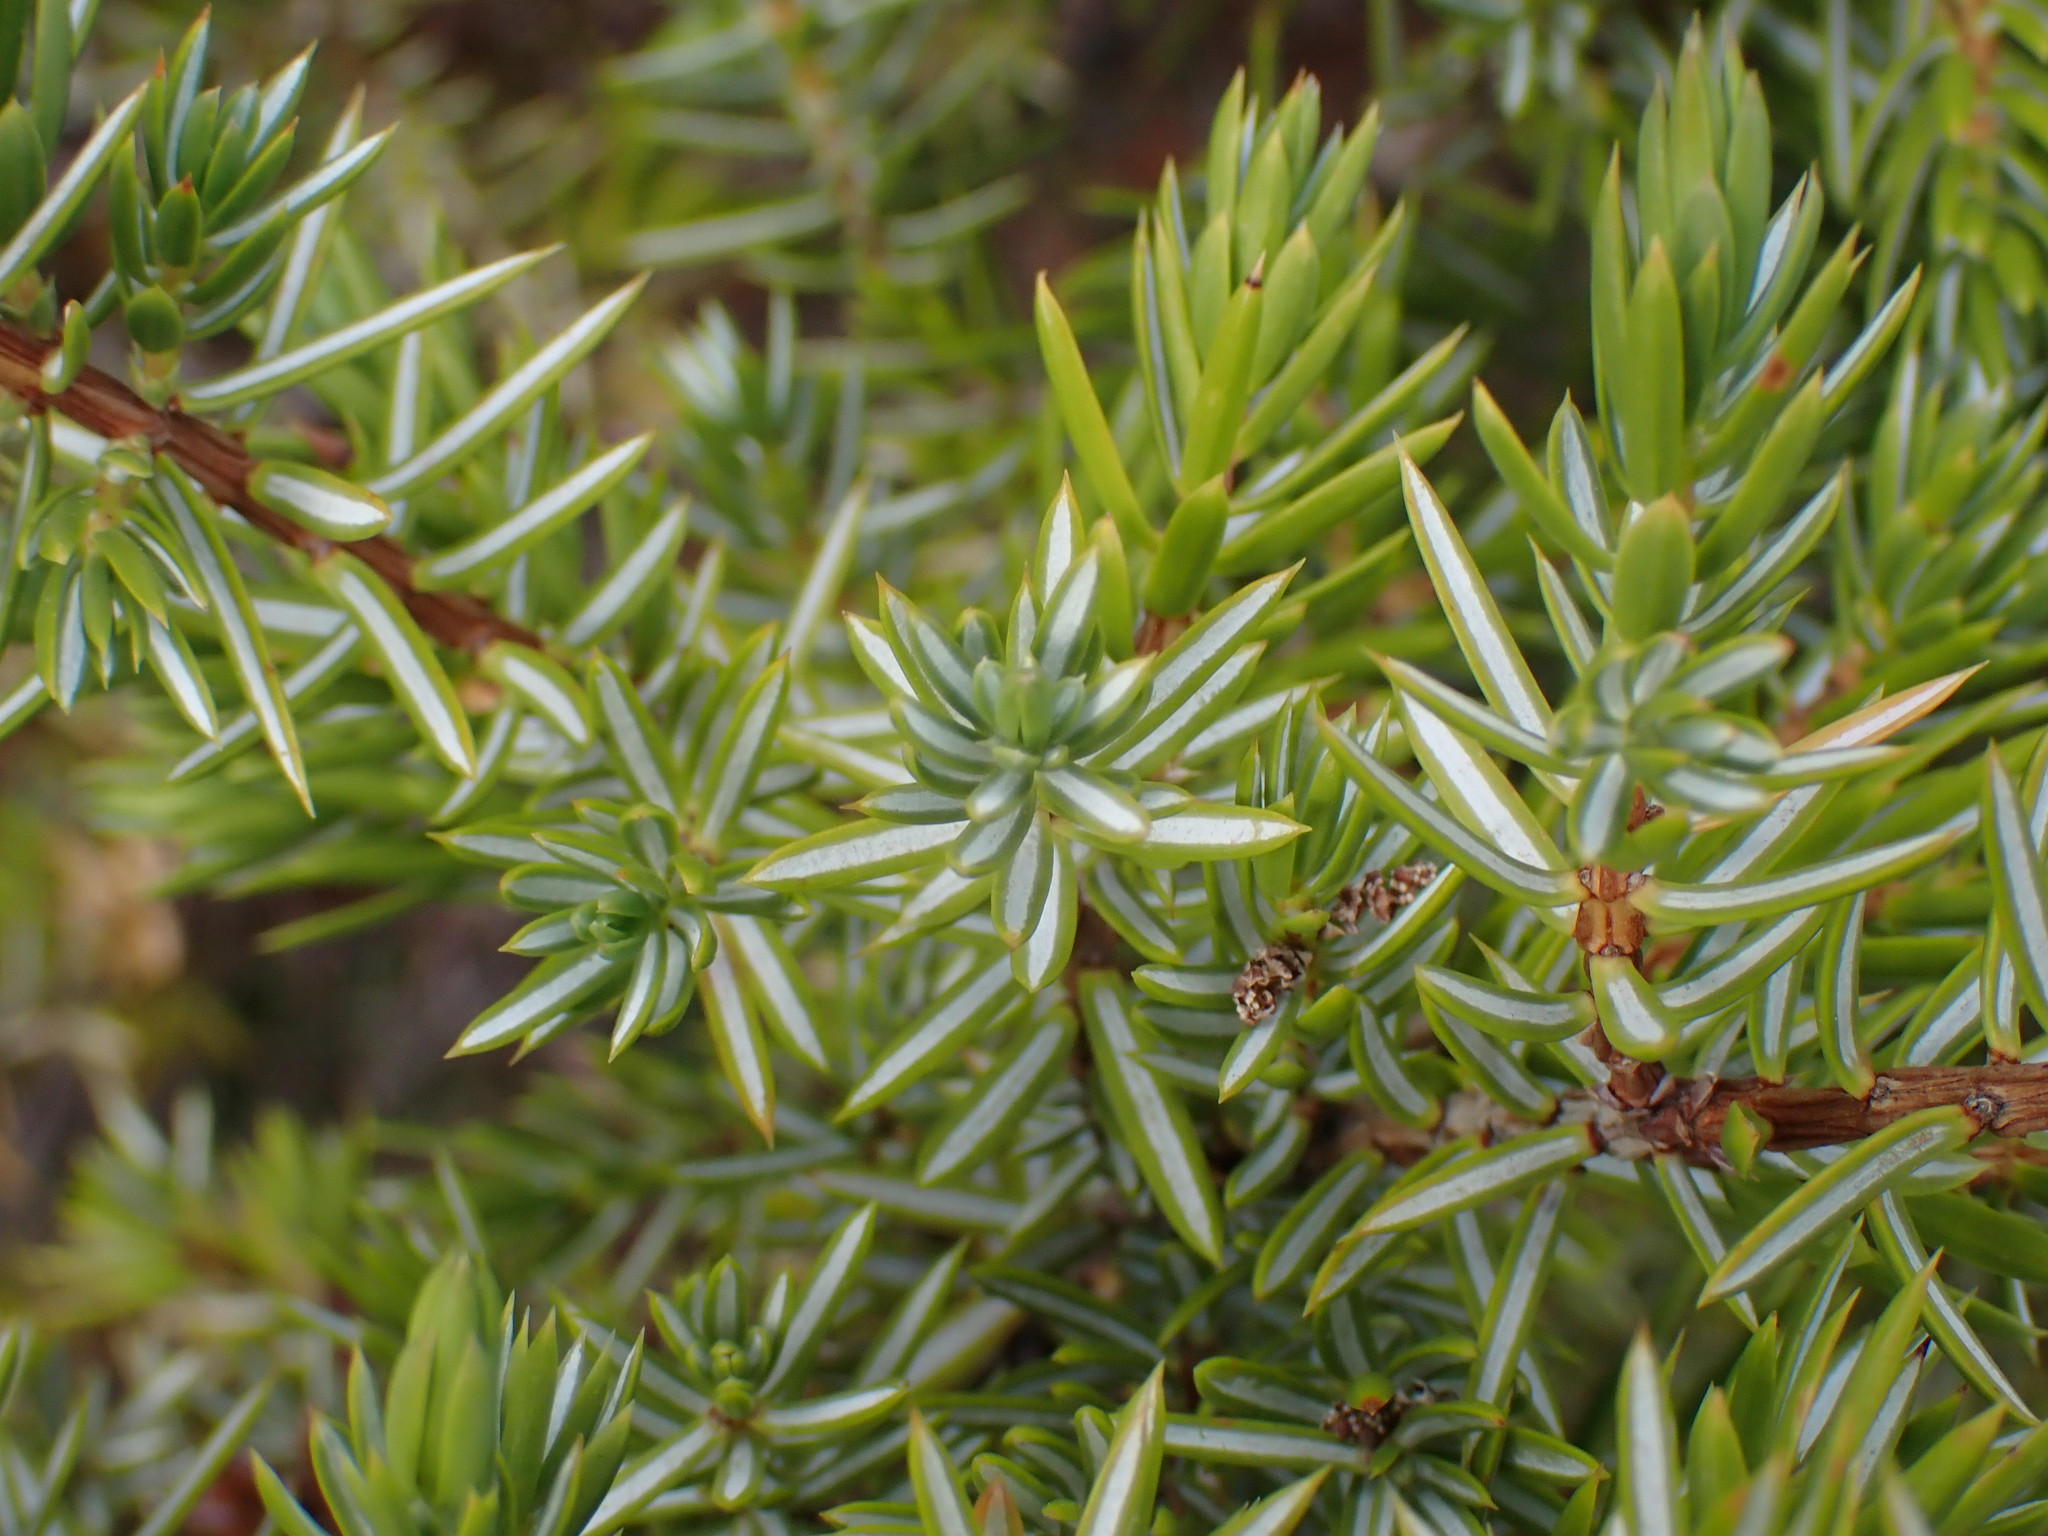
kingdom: Plantae
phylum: Tracheophyta
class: Pinopsida
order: Pinales
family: Cupressaceae
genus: Juniperus
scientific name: Juniperus communis
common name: Common juniper
